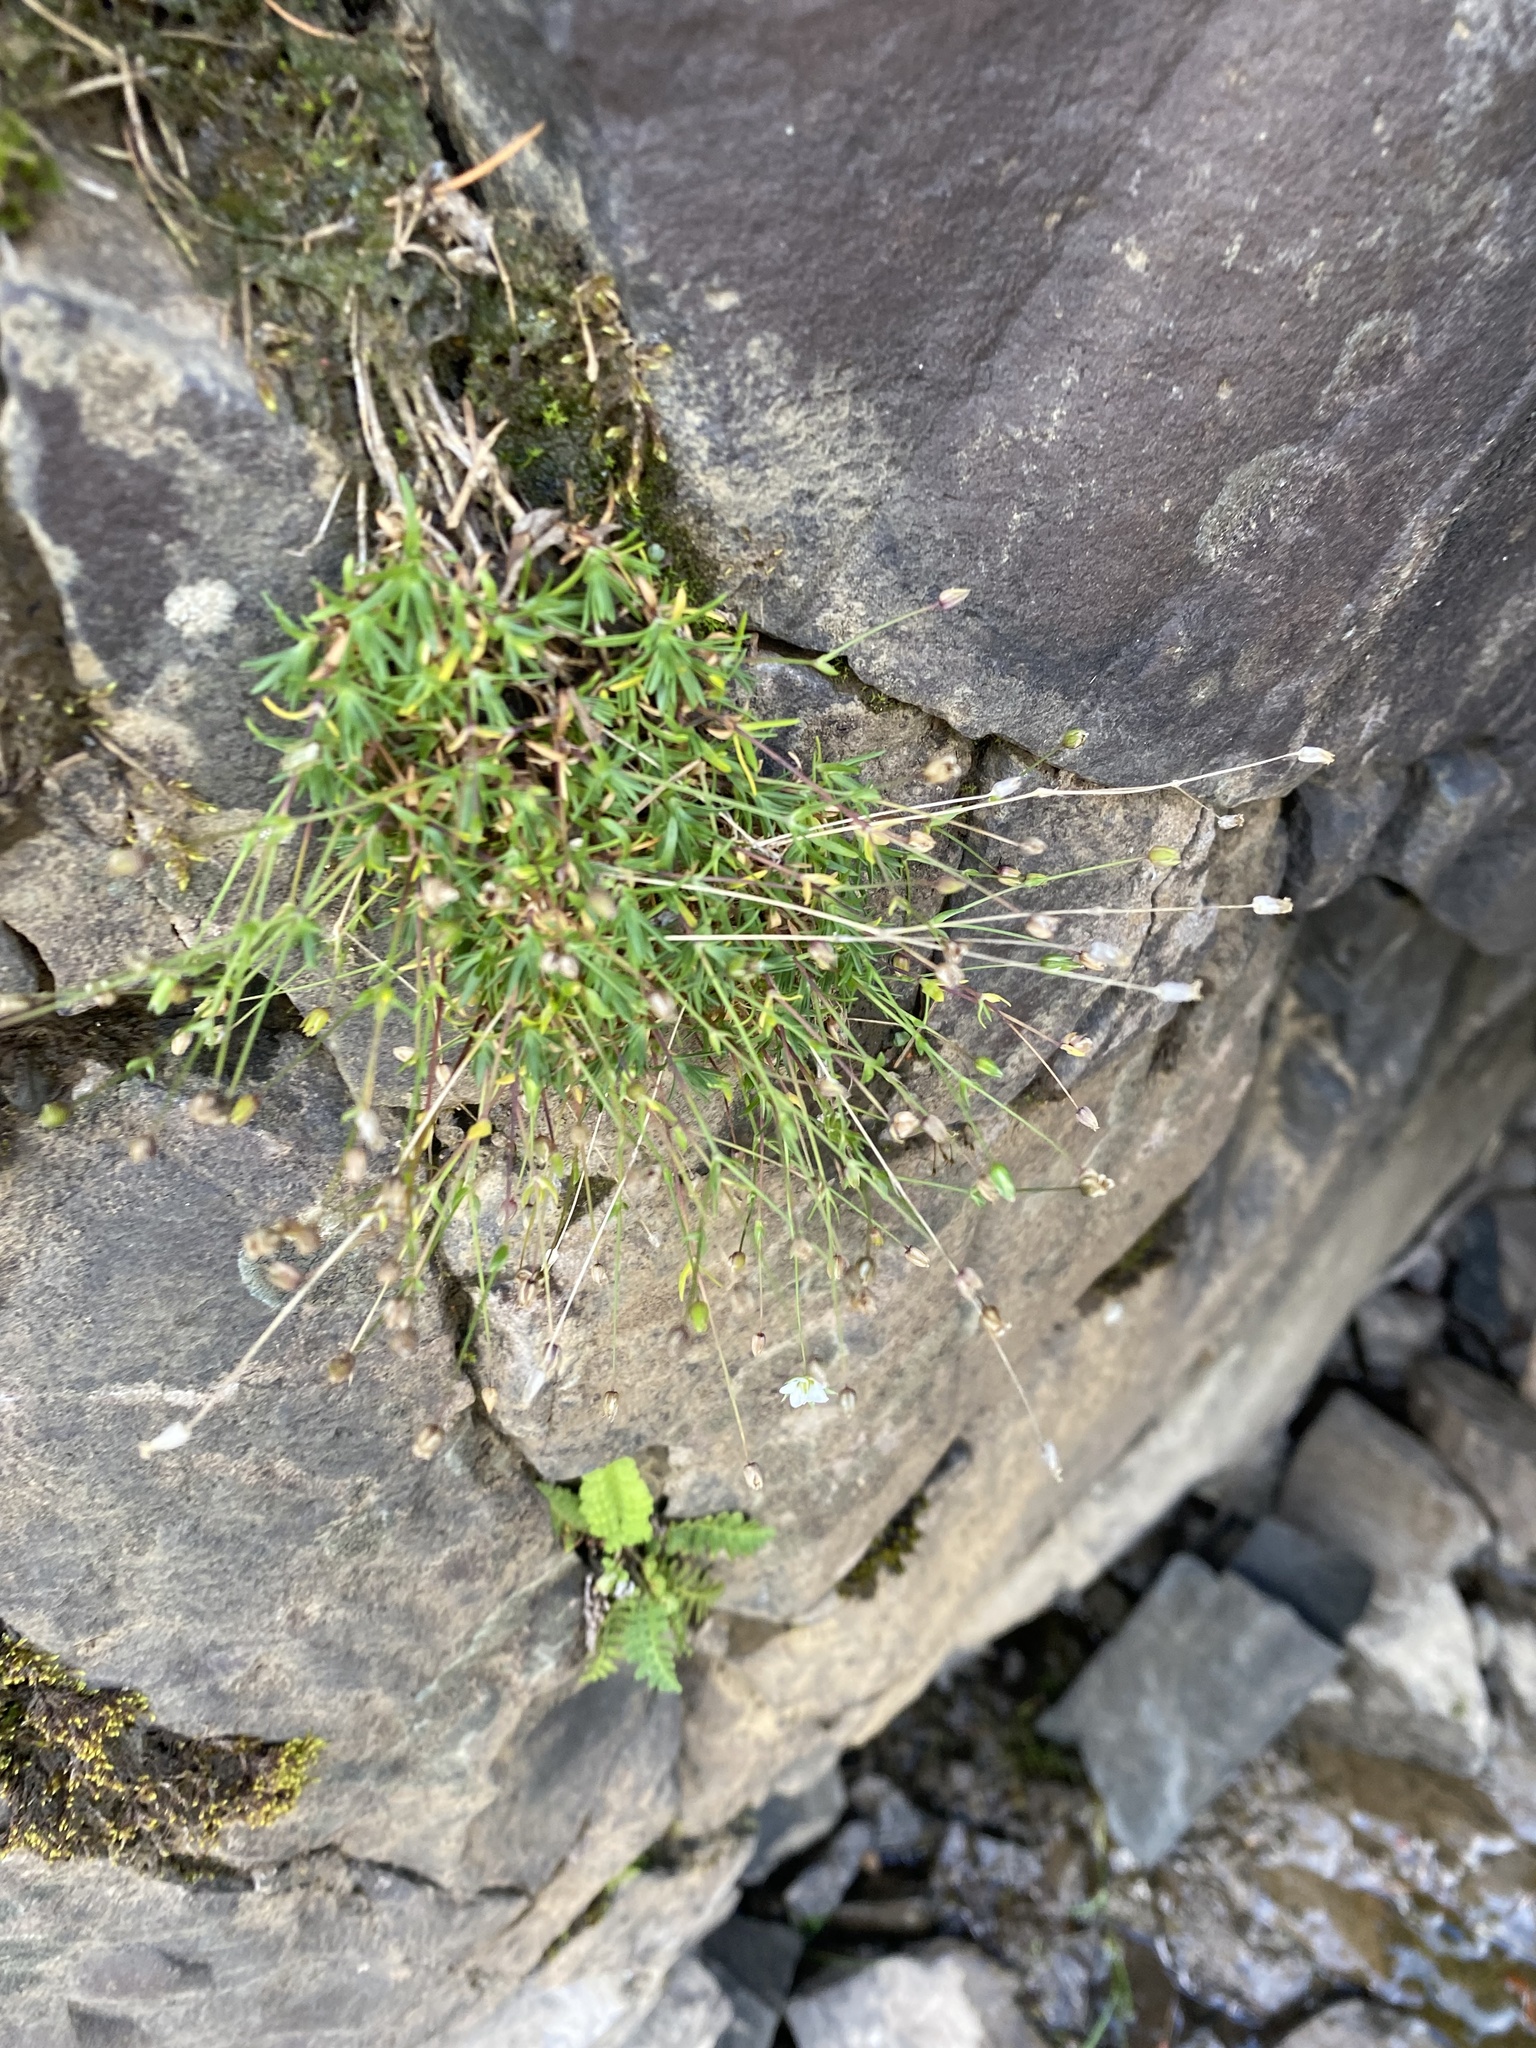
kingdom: Plantae
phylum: Tracheophyta
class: Magnoliopsida
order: Caryophyllales
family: Caryophyllaceae
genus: Sabulina
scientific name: Sabulina rubella
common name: Beautiful sandwort
